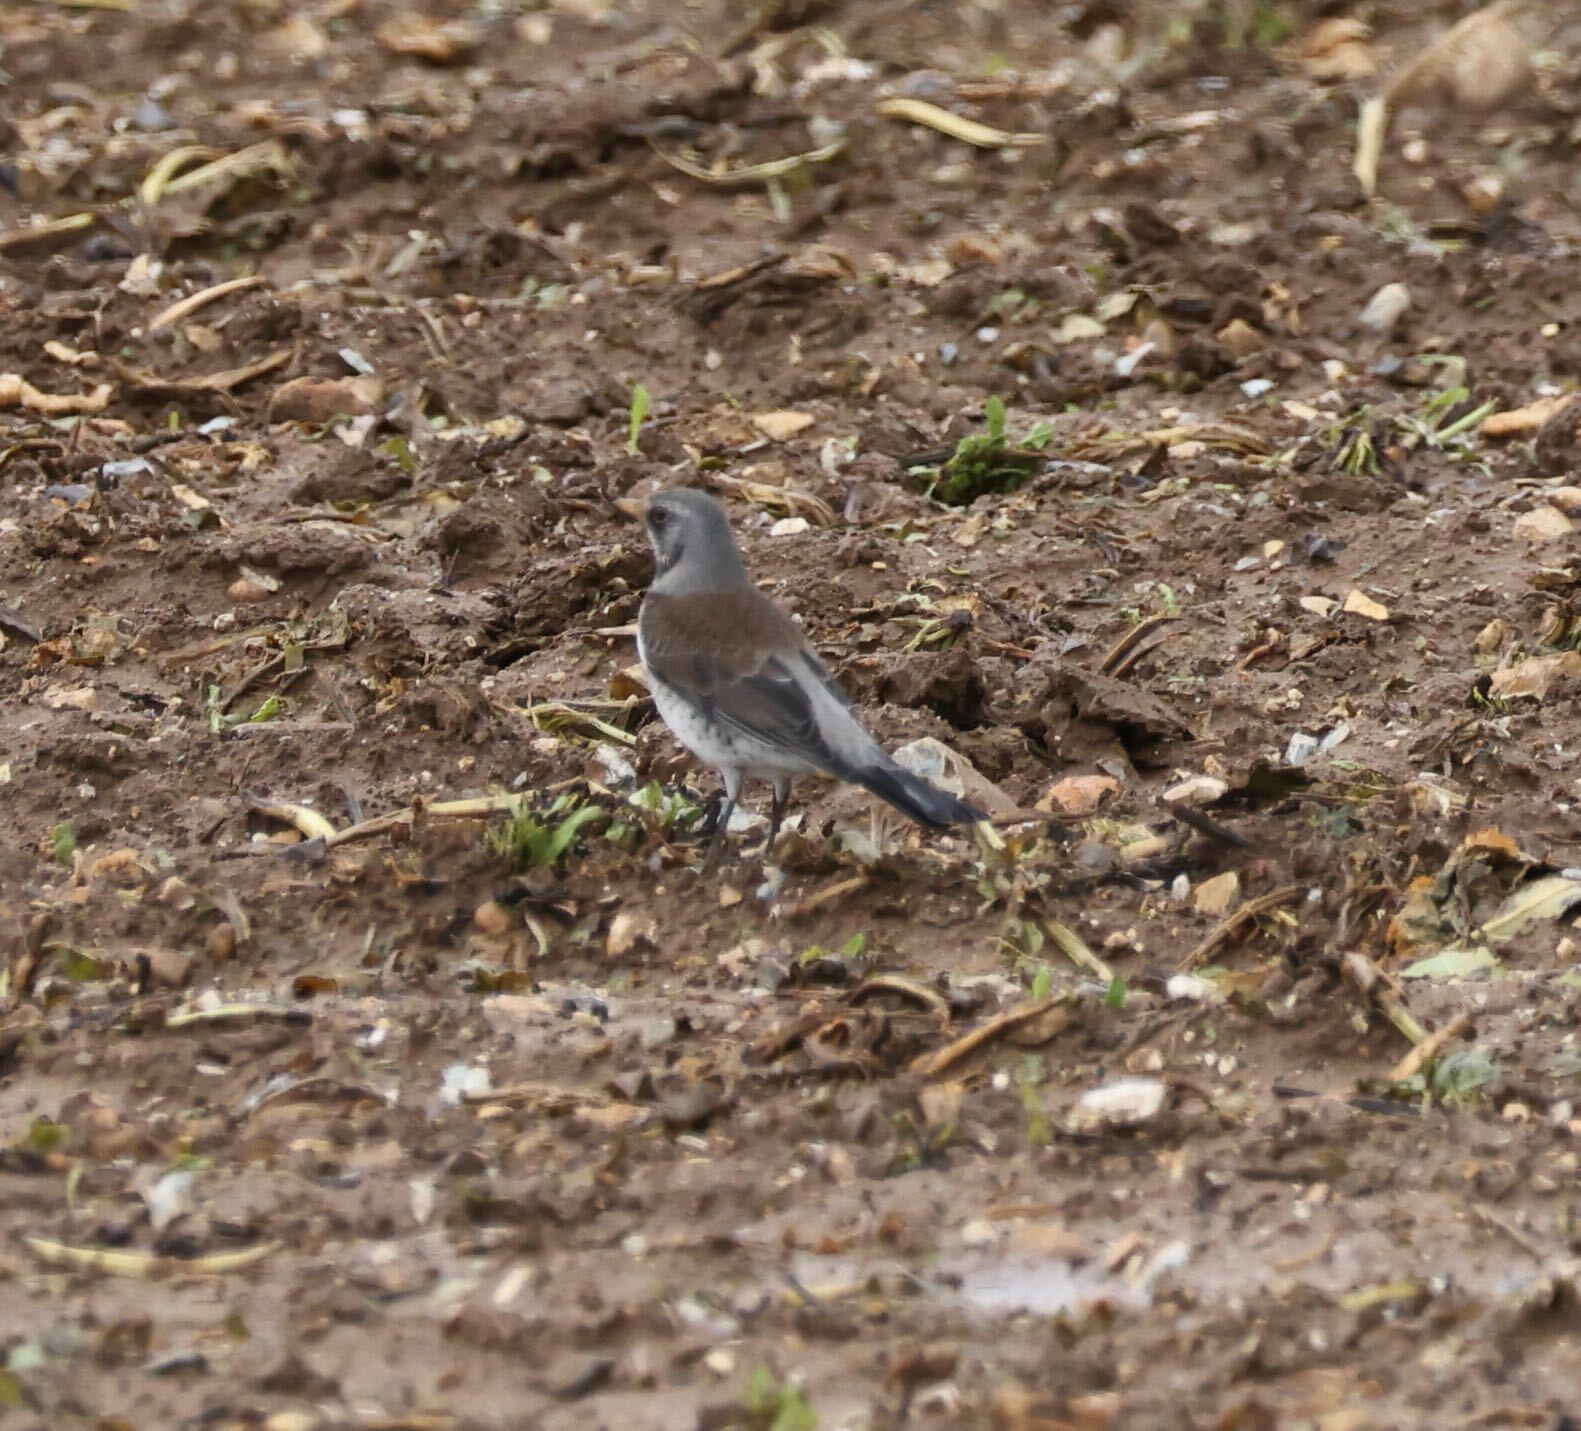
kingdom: Animalia
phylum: Chordata
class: Aves
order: Passeriformes
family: Turdidae
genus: Turdus
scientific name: Turdus pilaris
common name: Fieldfare
